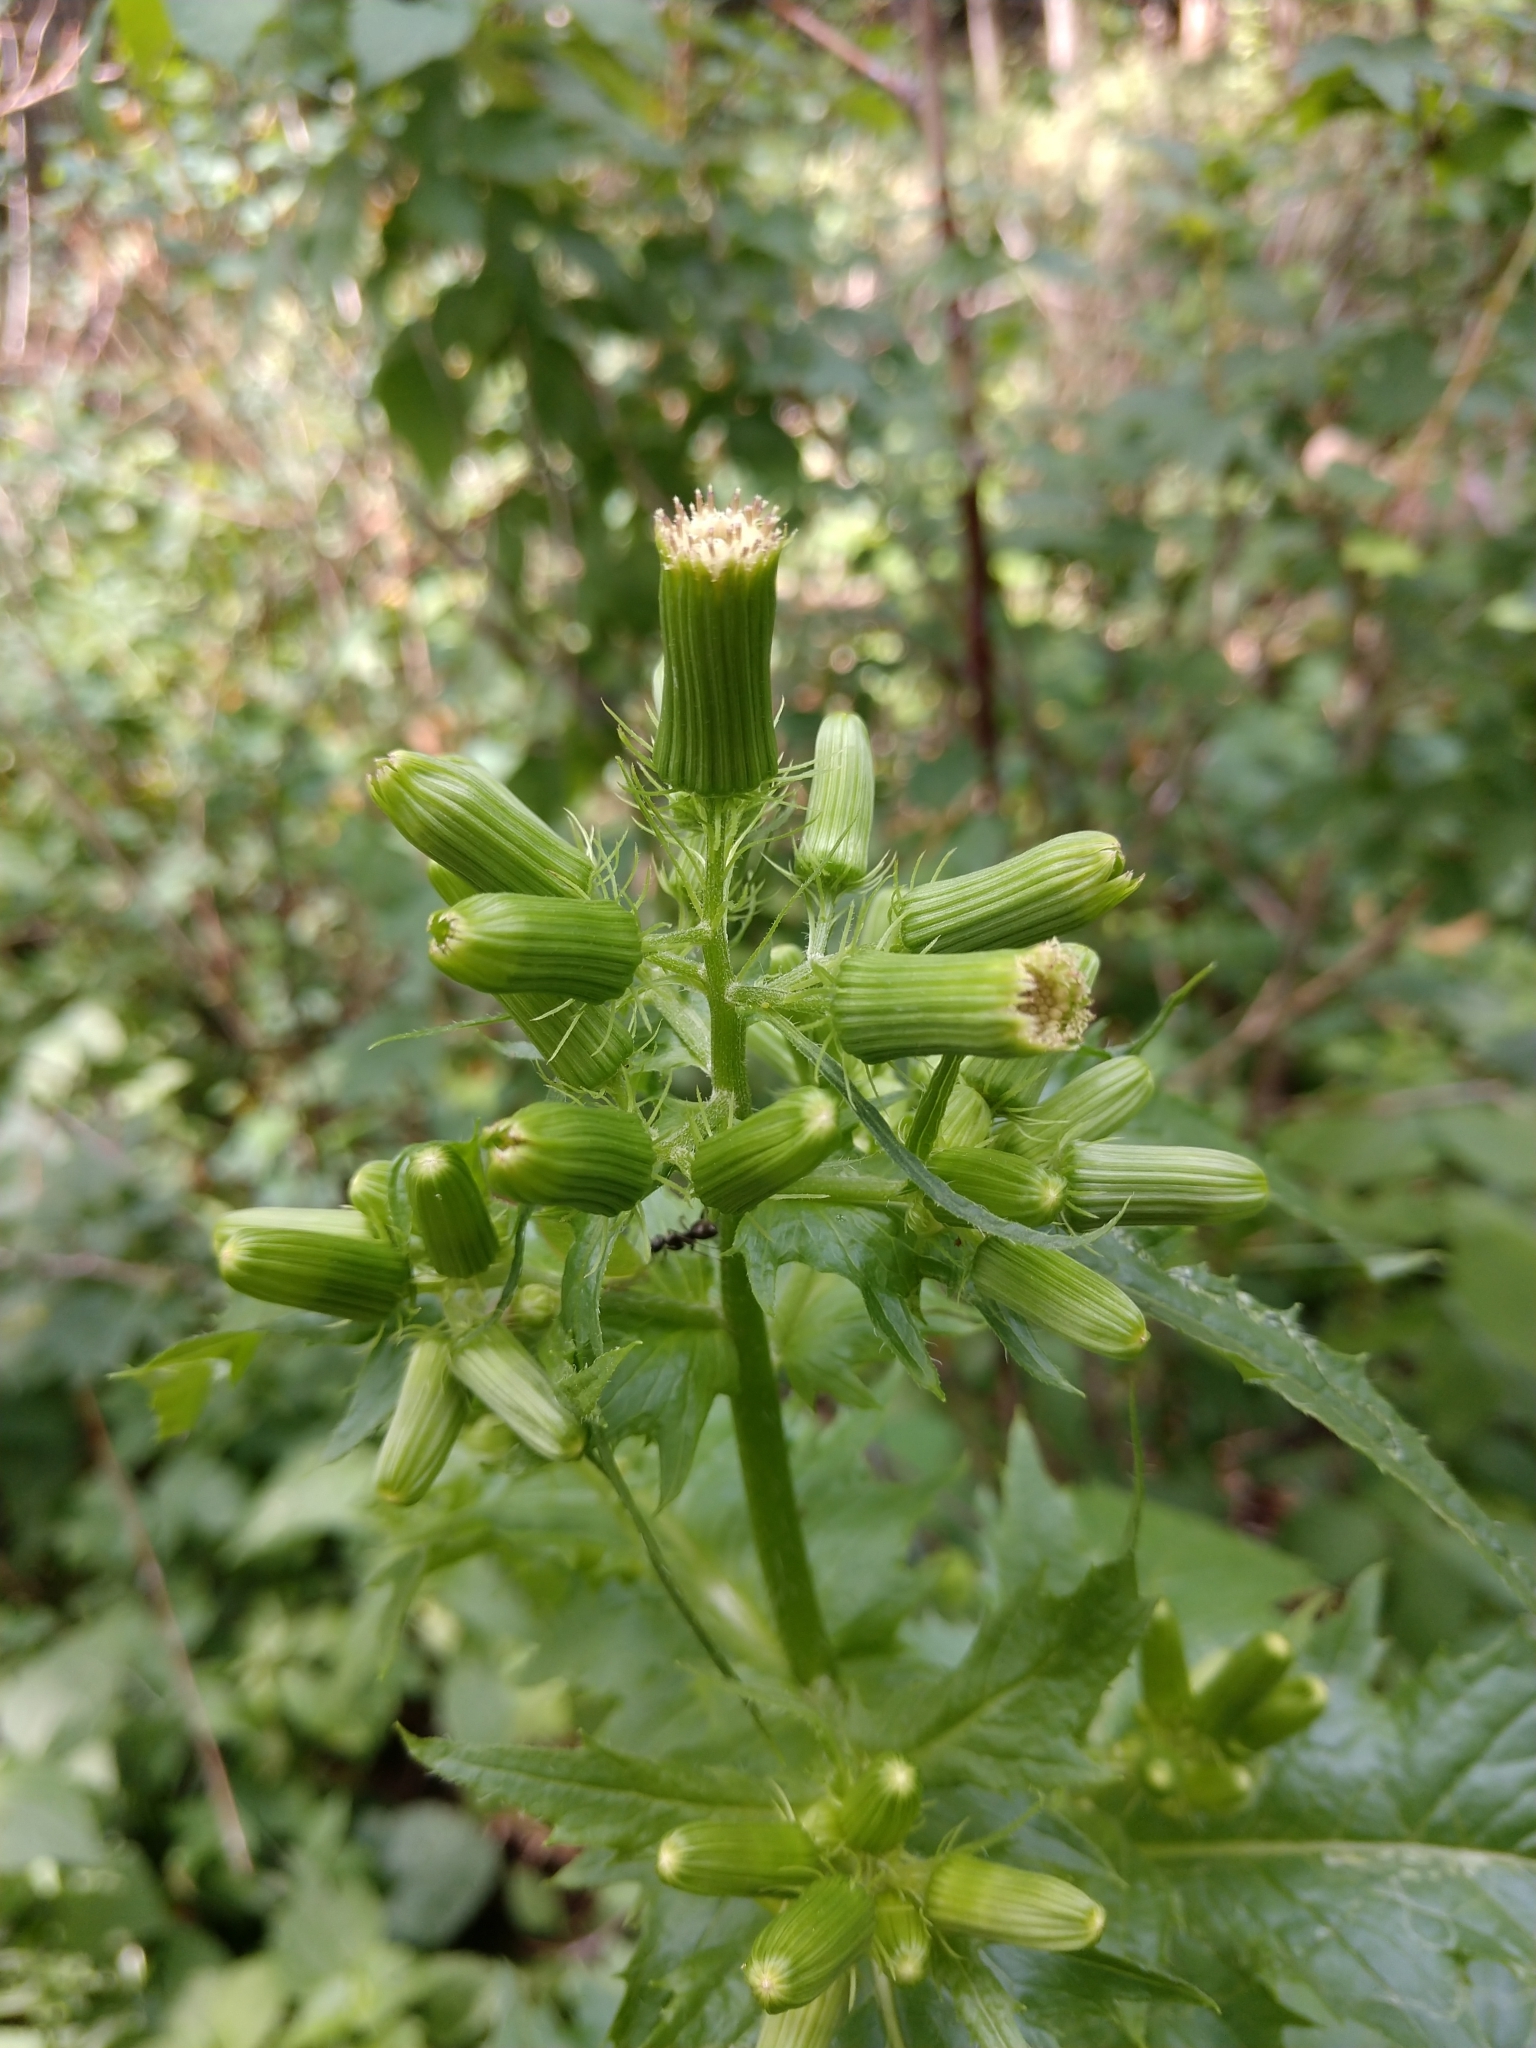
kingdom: Plantae
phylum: Tracheophyta
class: Magnoliopsida
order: Asterales
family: Asteraceae
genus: Erechtites
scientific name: Erechtites hieraciifolius
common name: American burnweed
